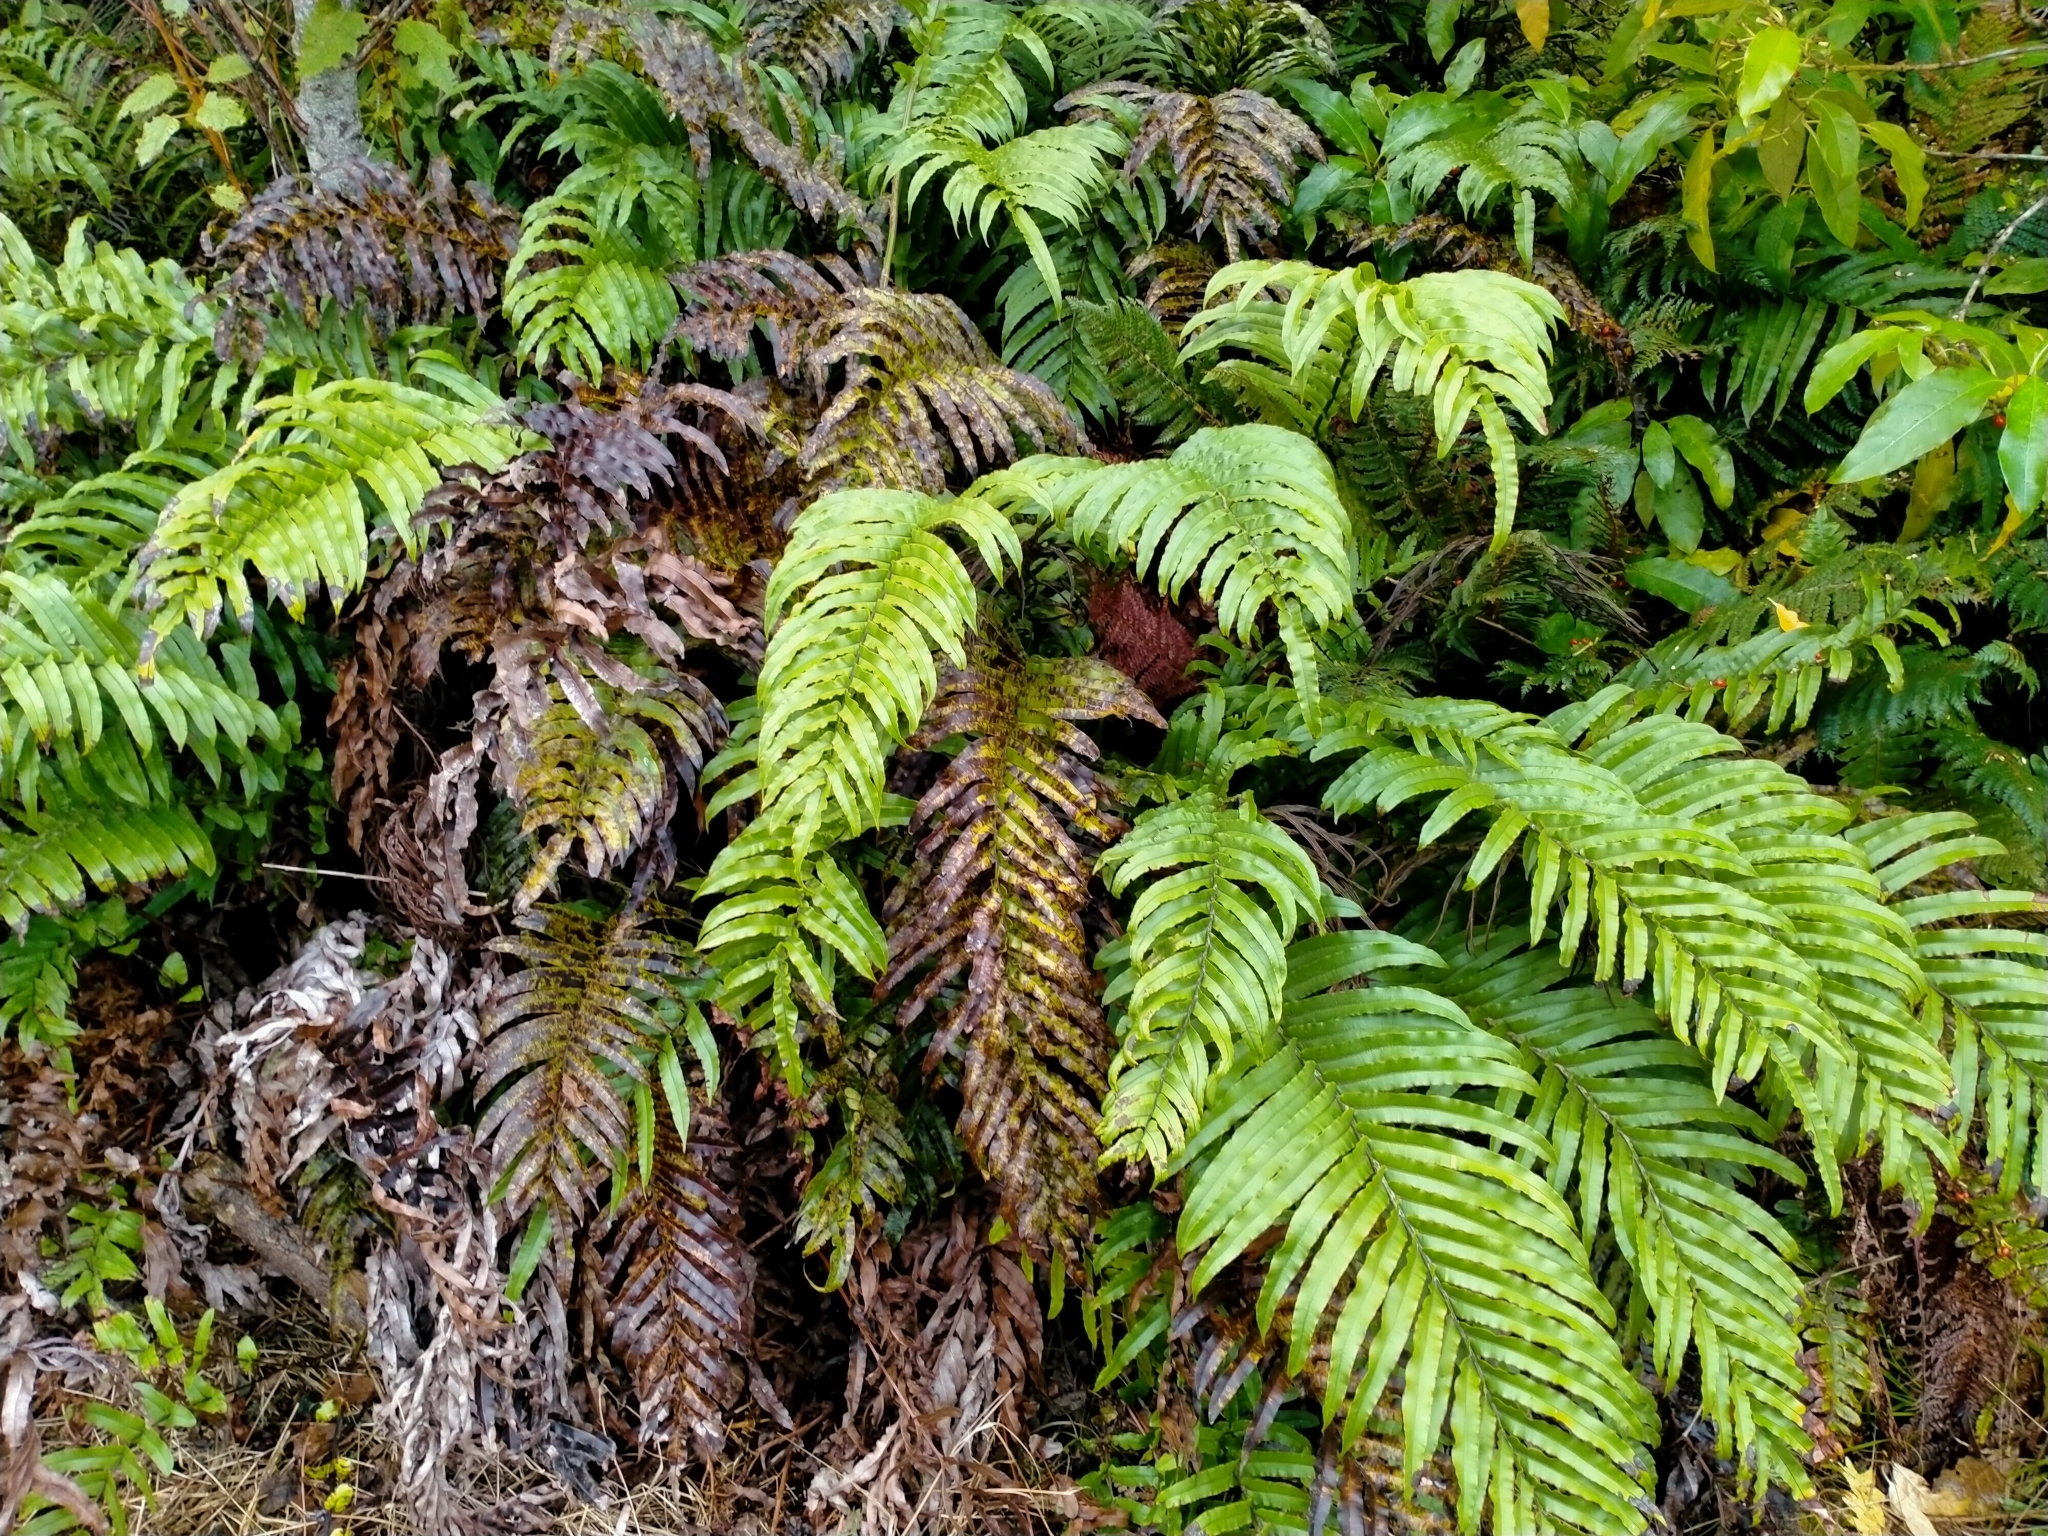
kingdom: Plantae
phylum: Tracheophyta
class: Polypodiopsida
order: Polypodiales
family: Blechnaceae
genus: Parablechnum
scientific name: Parablechnum novae-zelandiae
